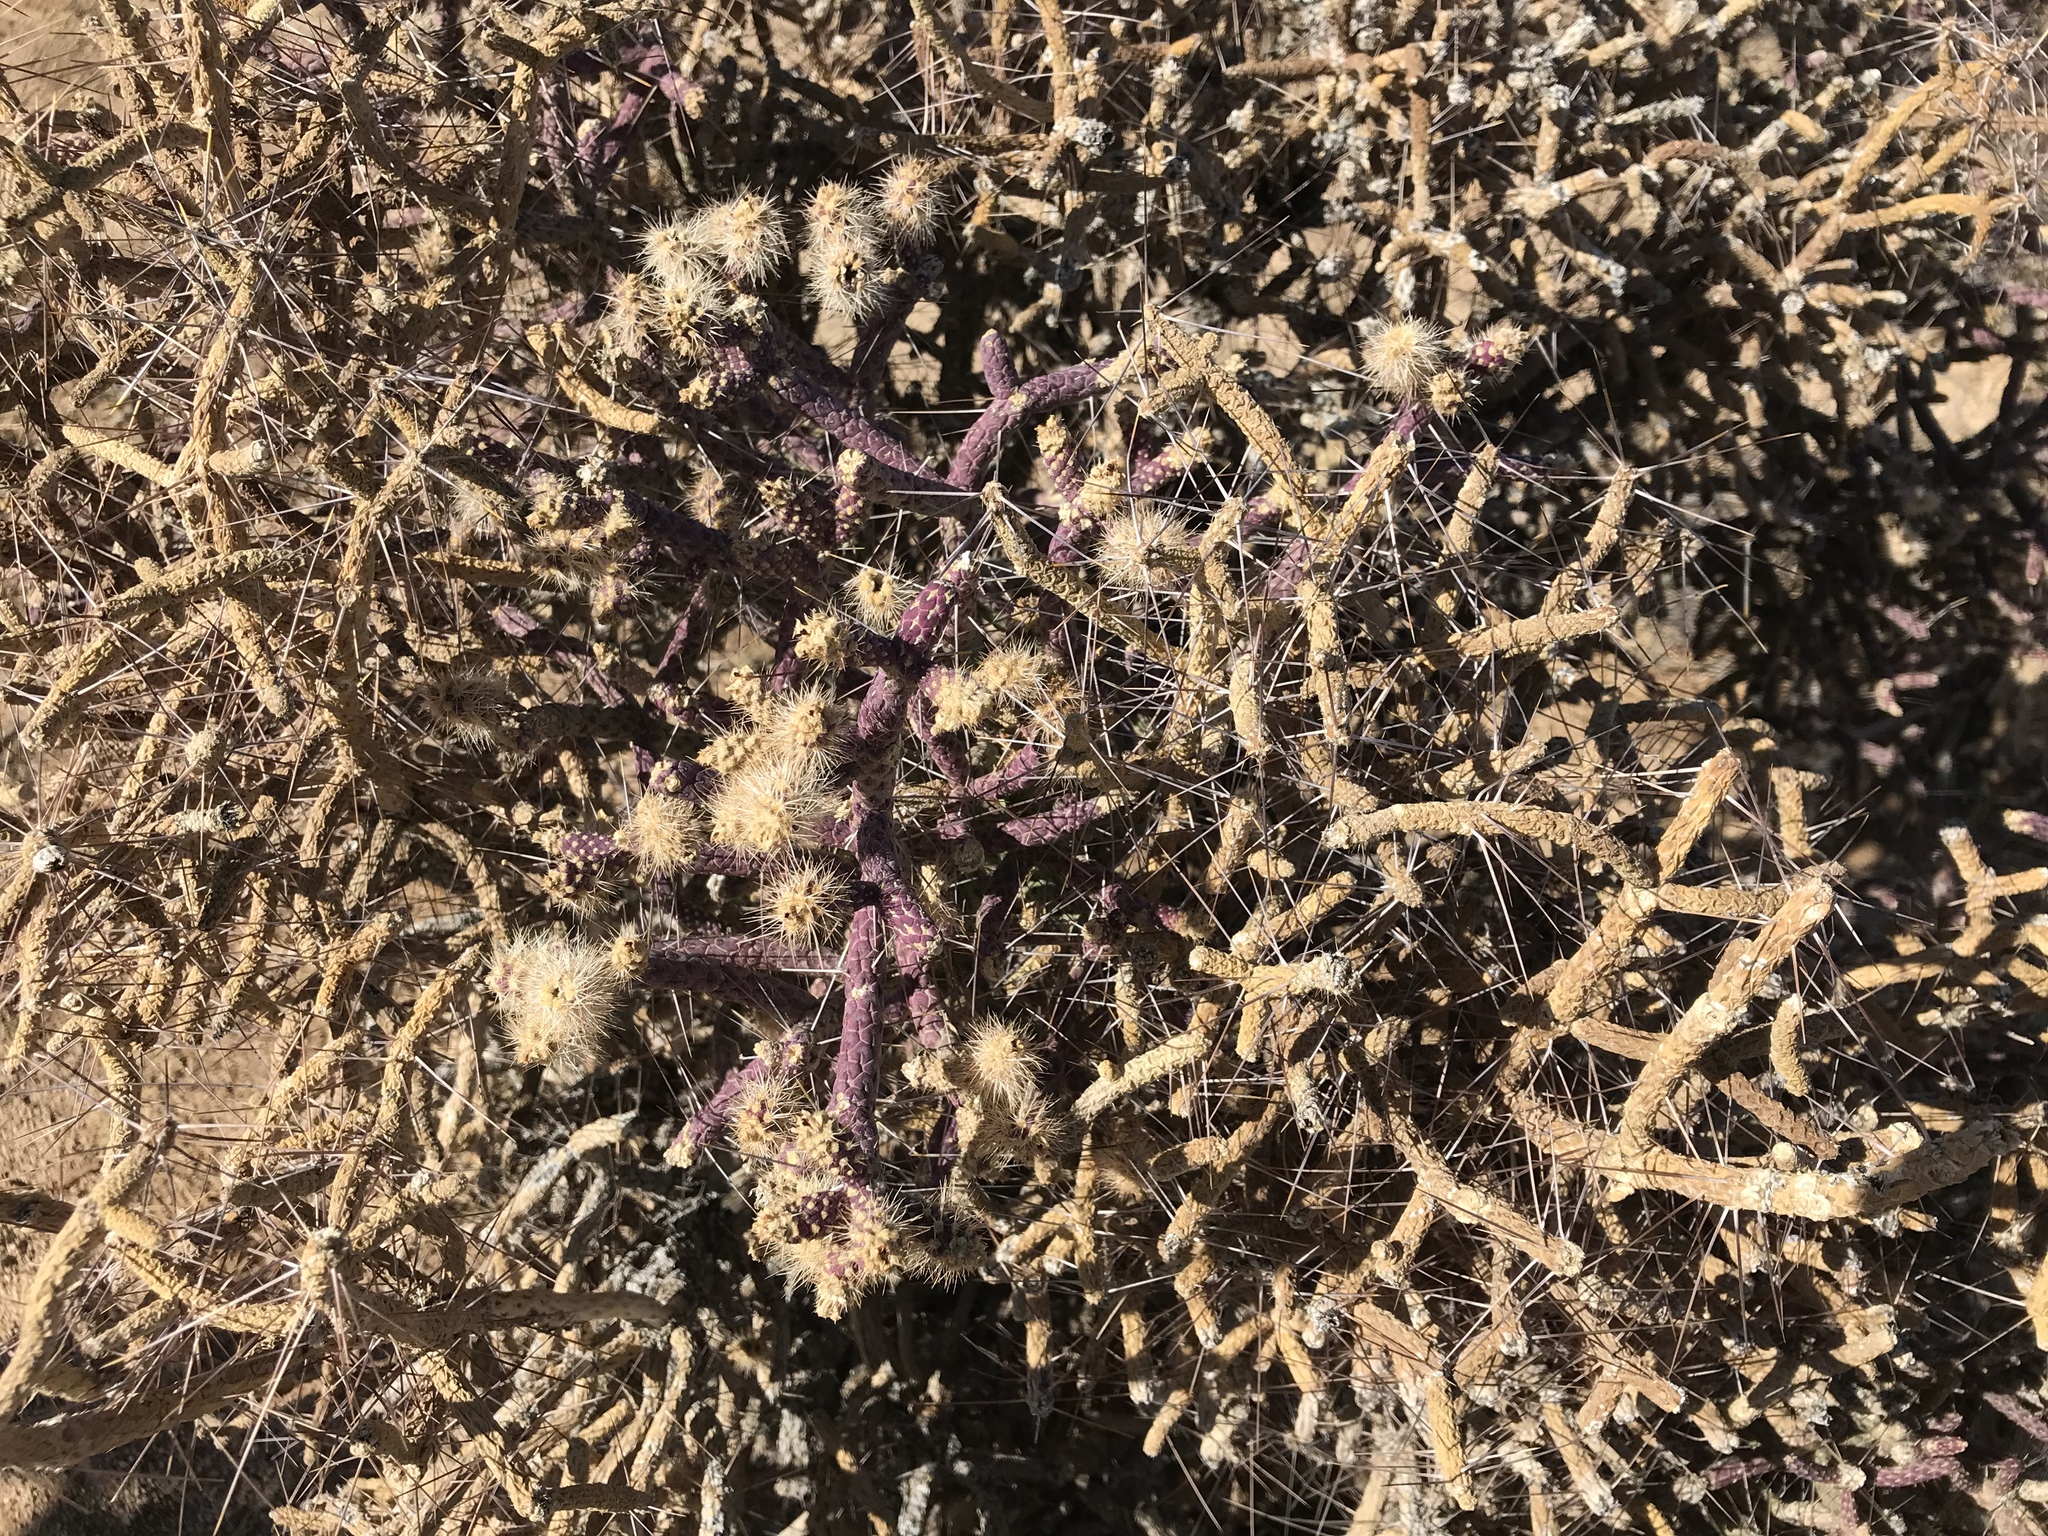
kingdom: Plantae
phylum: Tracheophyta
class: Magnoliopsida
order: Caryophyllales
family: Cactaceae
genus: Cylindropuntia
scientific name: Cylindropuntia ramosissima
